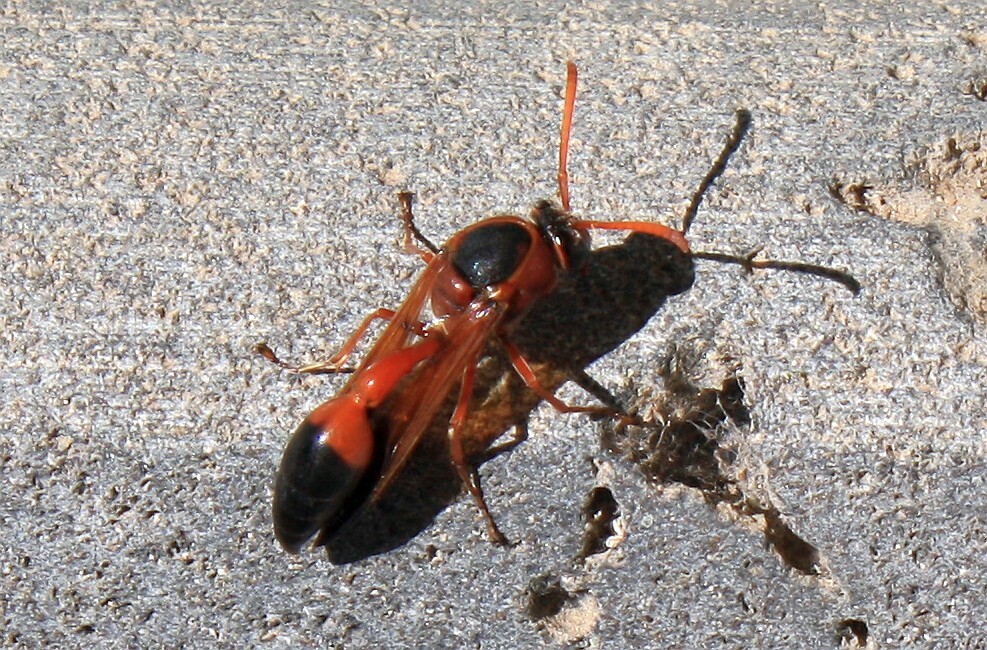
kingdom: Animalia
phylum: Arthropoda
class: Insecta
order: Hymenoptera
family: Eumenidae
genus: Delta
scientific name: Delta dimidiatipenne
